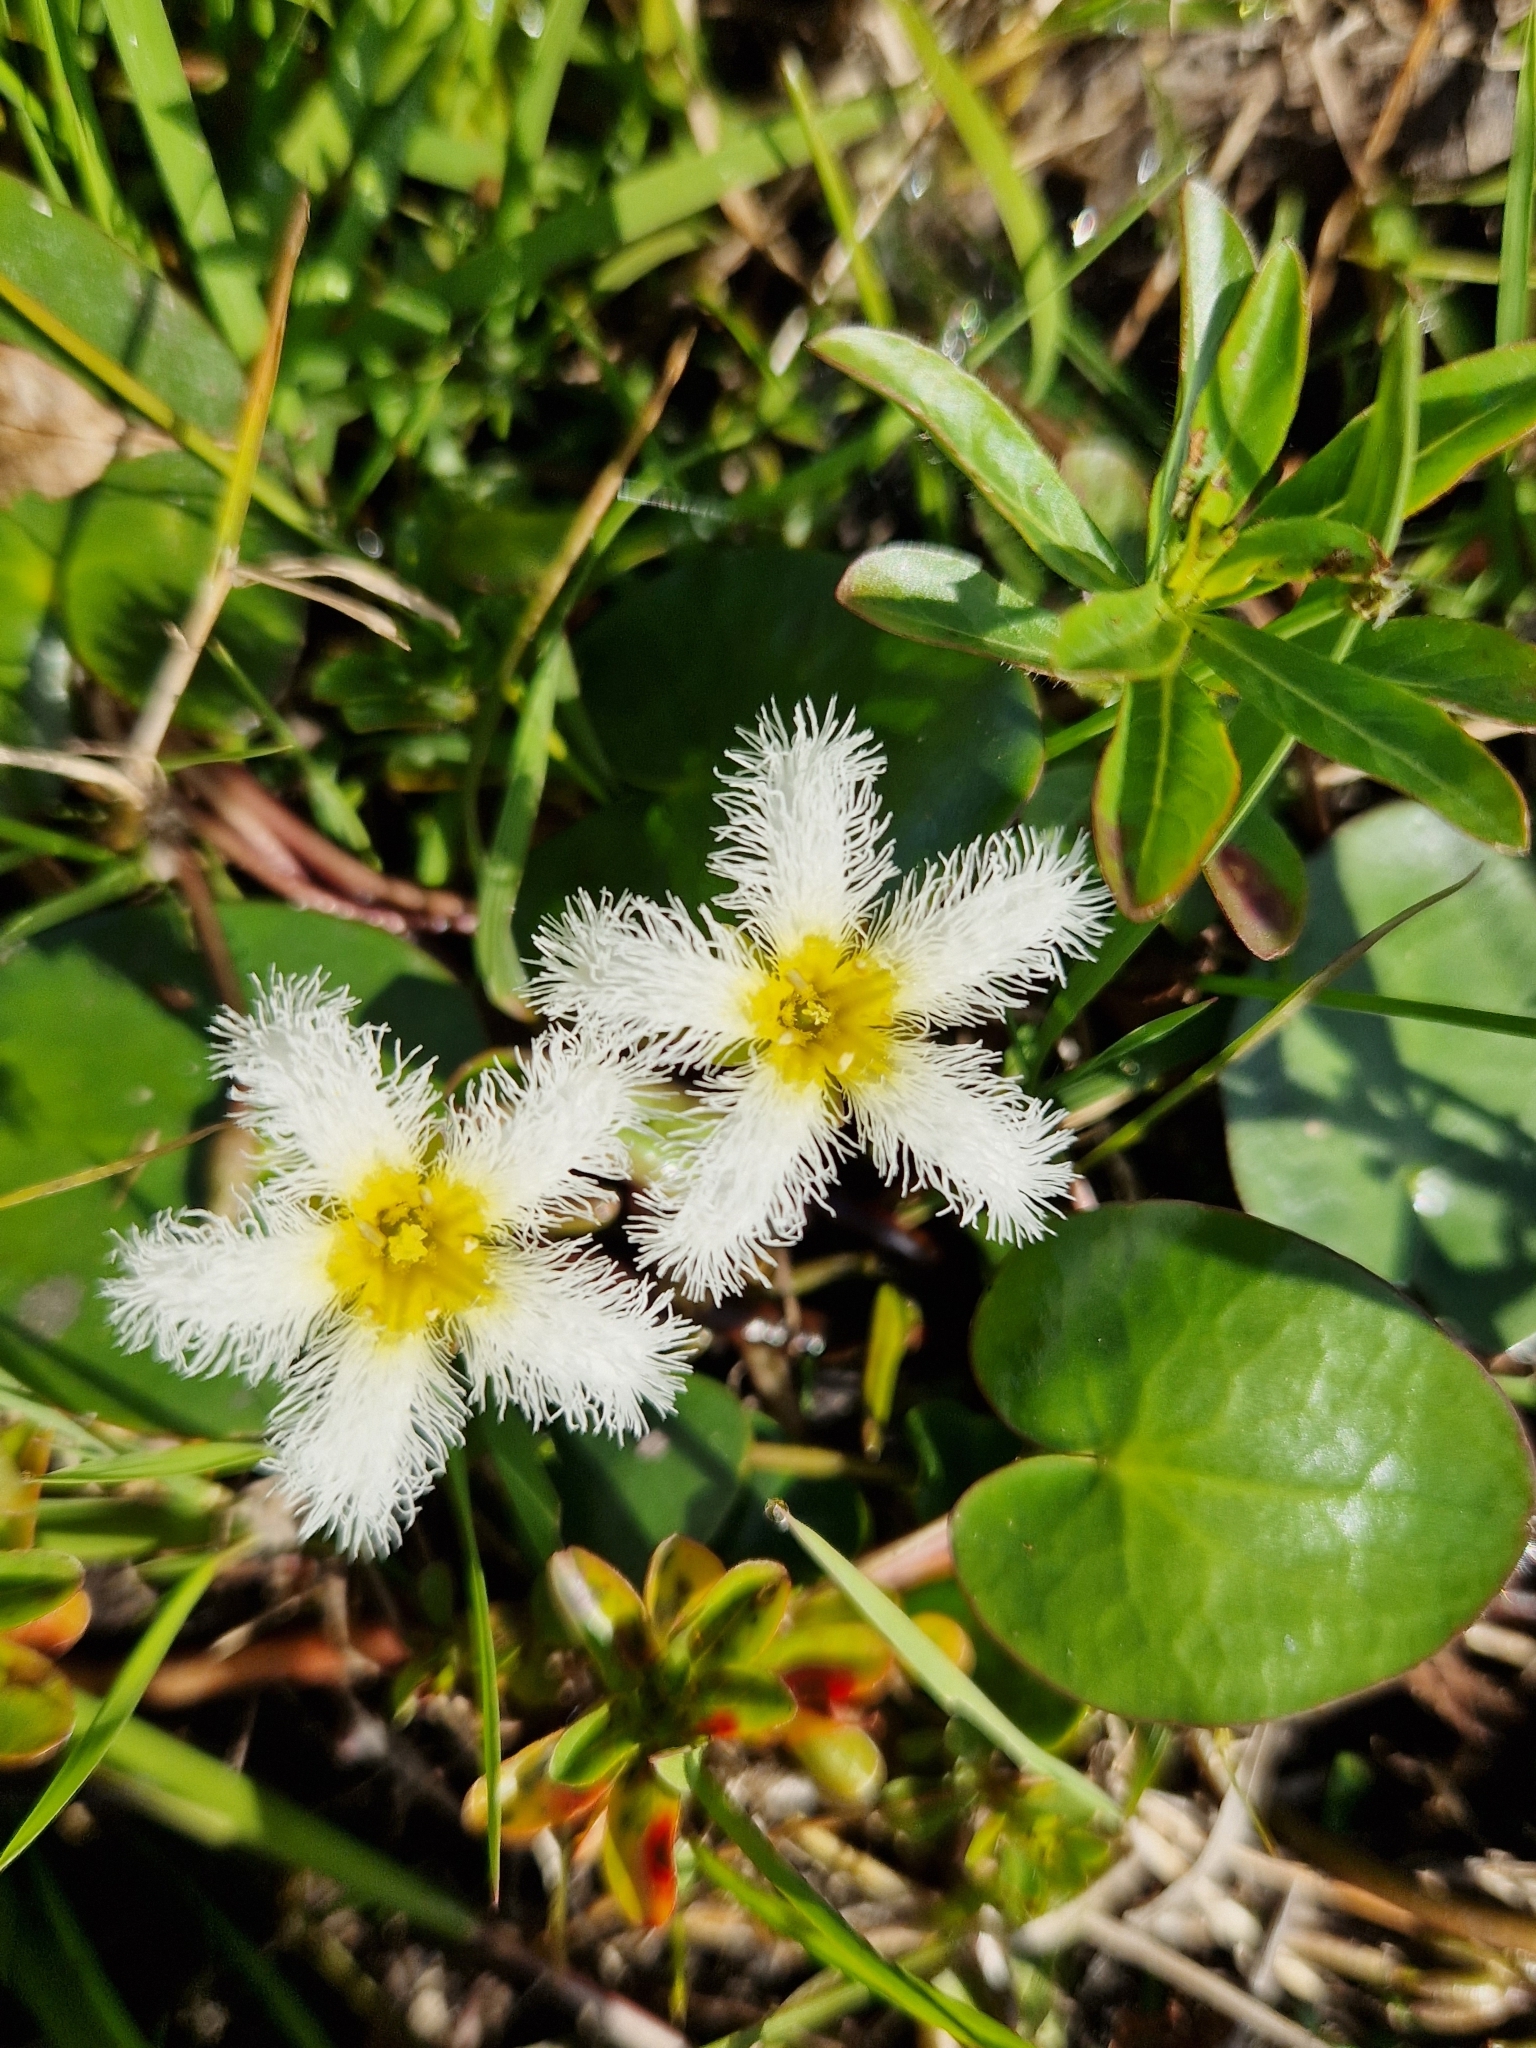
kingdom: Plantae
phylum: Tracheophyta
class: Magnoliopsida
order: Asterales
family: Menyanthaceae
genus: Nymphoides
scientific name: Nymphoides humboldtiana
